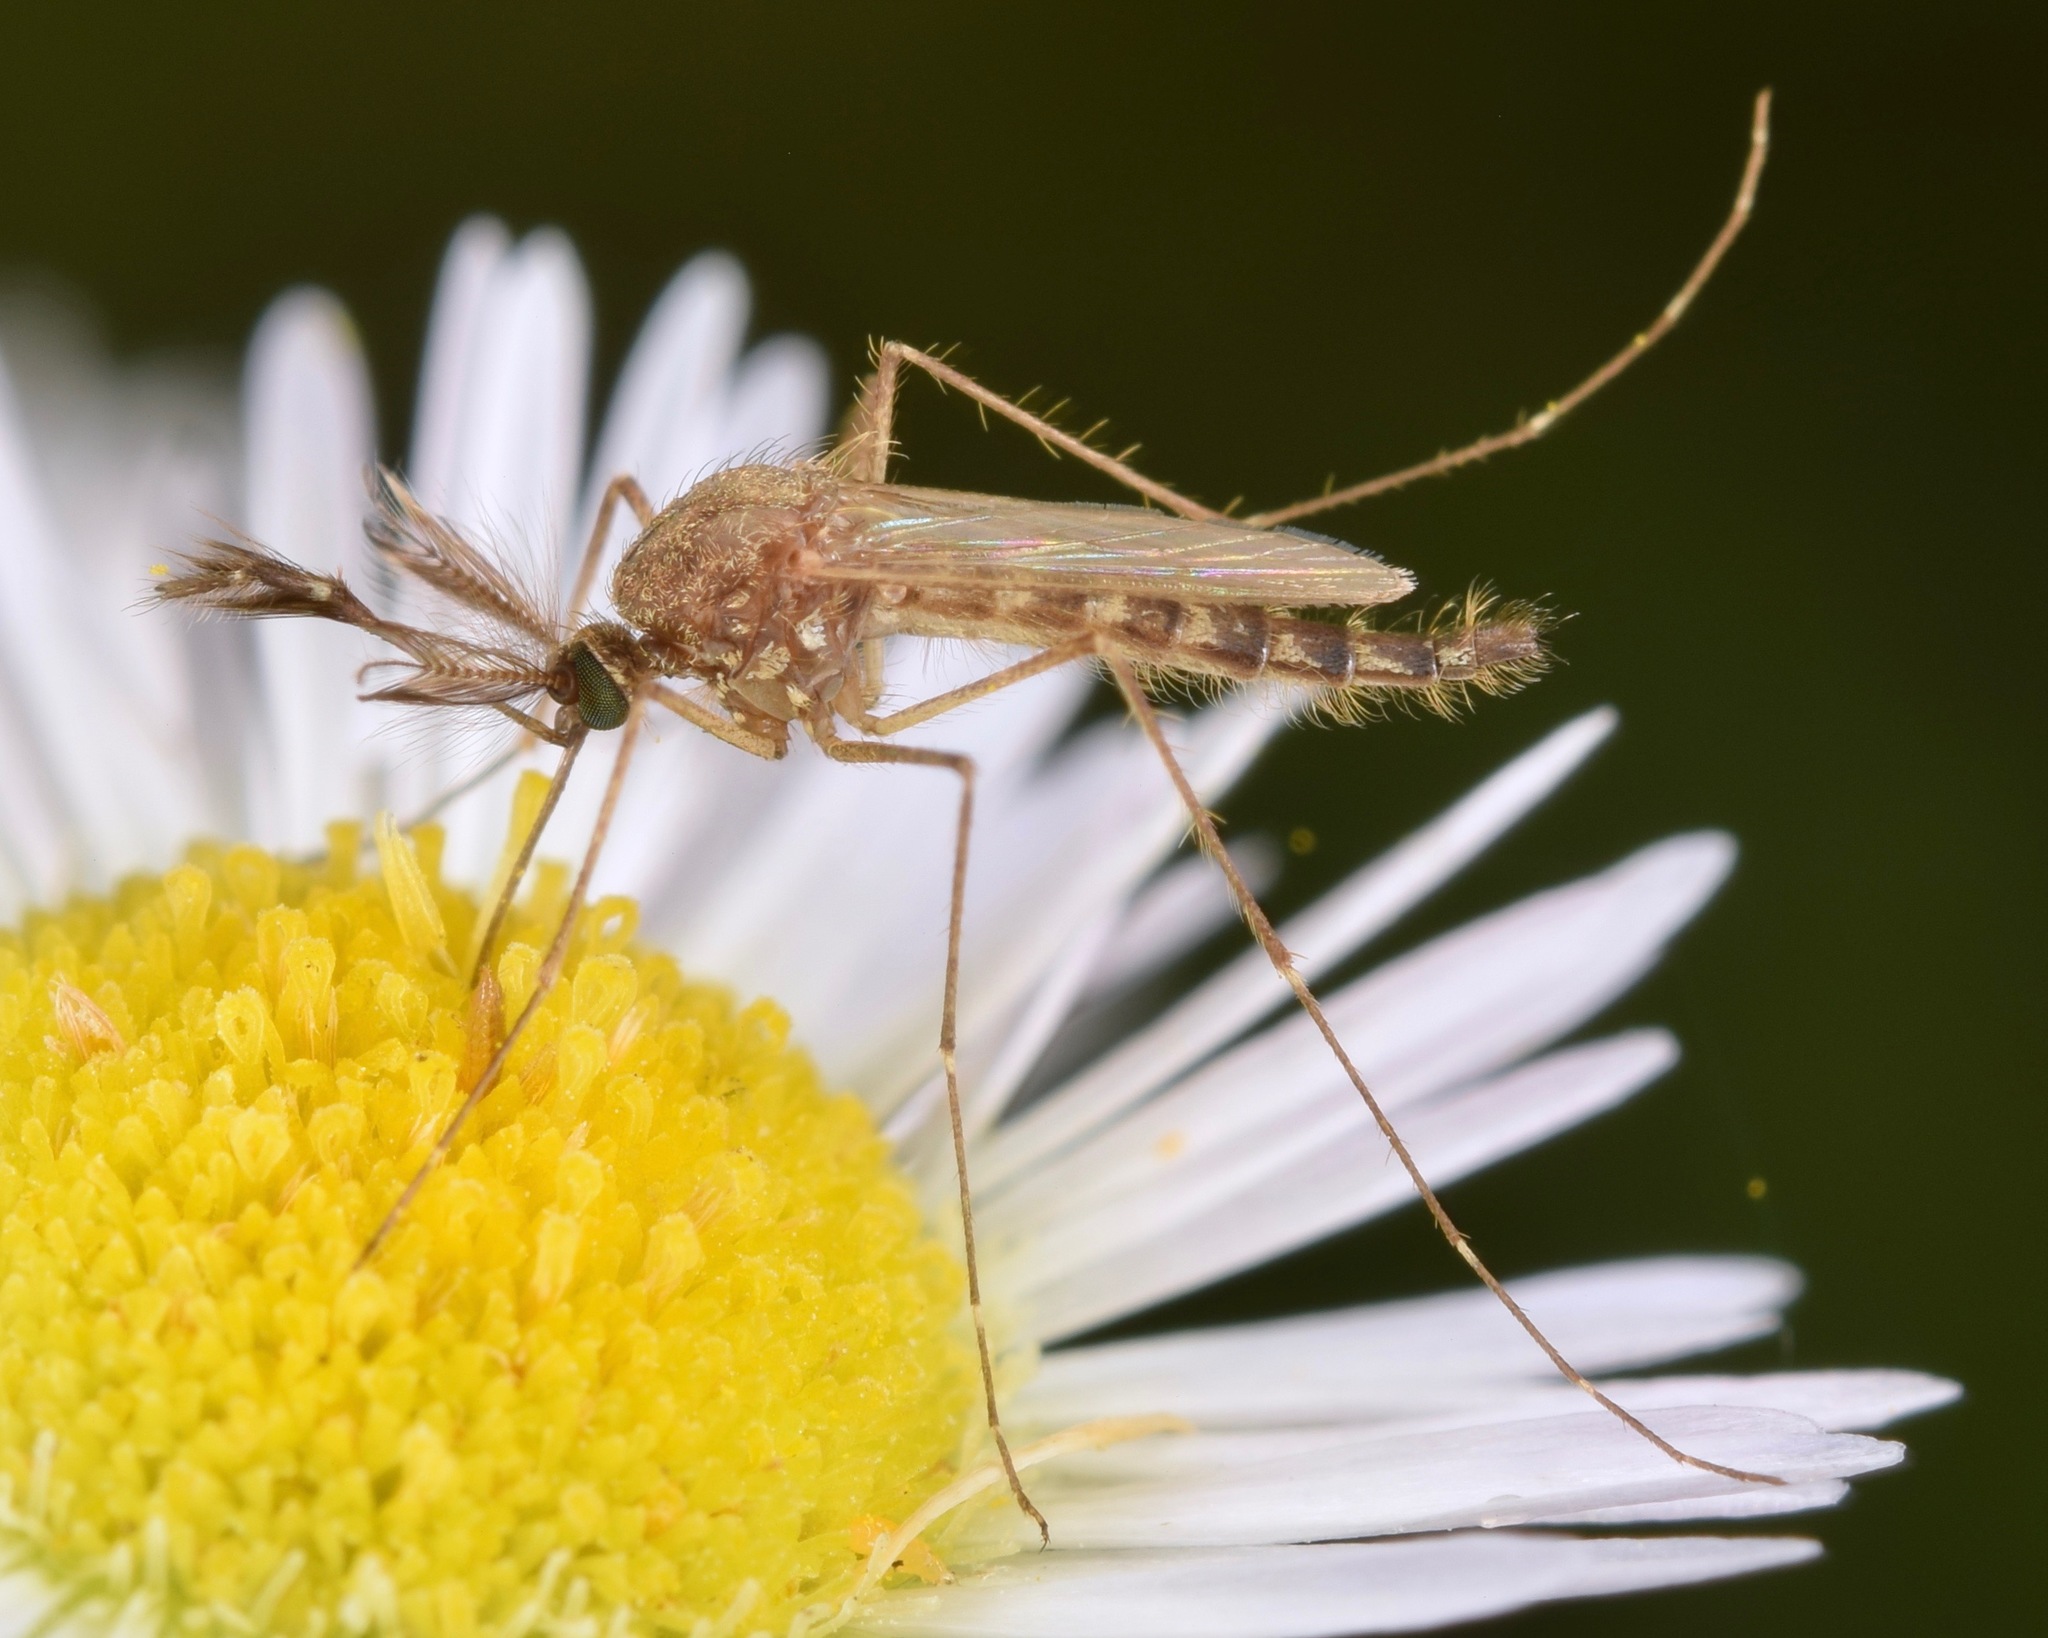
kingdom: Animalia
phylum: Arthropoda
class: Insecta
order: Diptera
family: Culicidae
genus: Aedes
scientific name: Aedes vexans
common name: Inland floodwater mosquito
